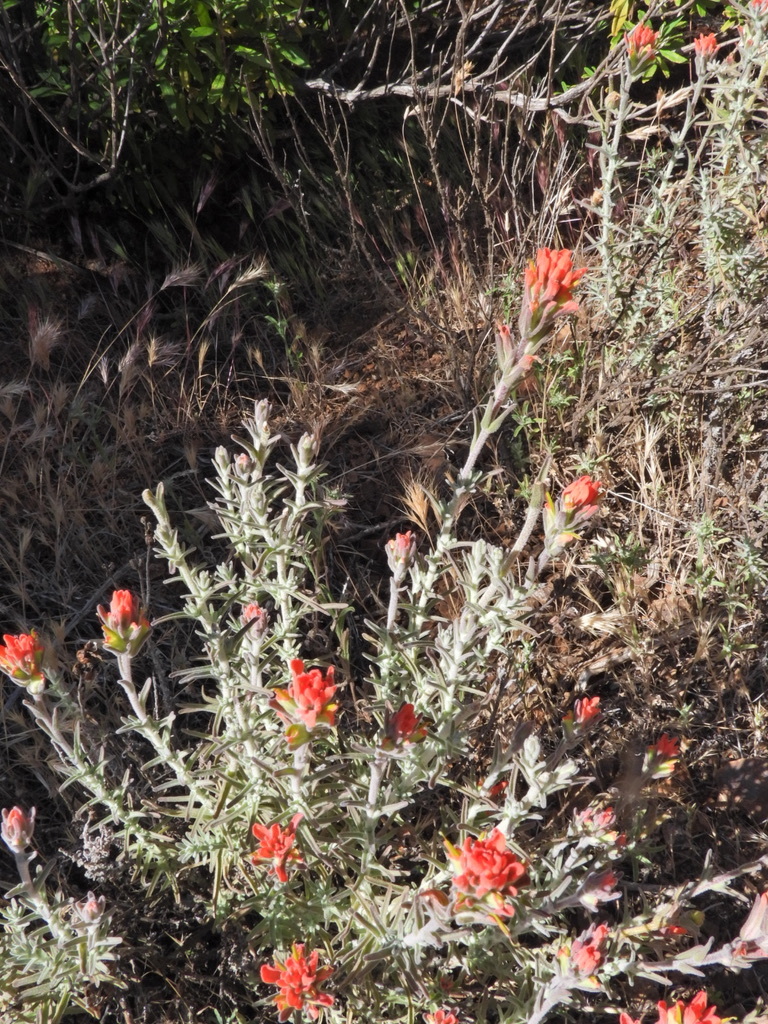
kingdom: Plantae
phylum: Tracheophyta
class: Magnoliopsida
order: Lamiales
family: Orobanchaceae
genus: Castilleja
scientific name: Castilleja foliolosa
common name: Woolly indian paintbrush
